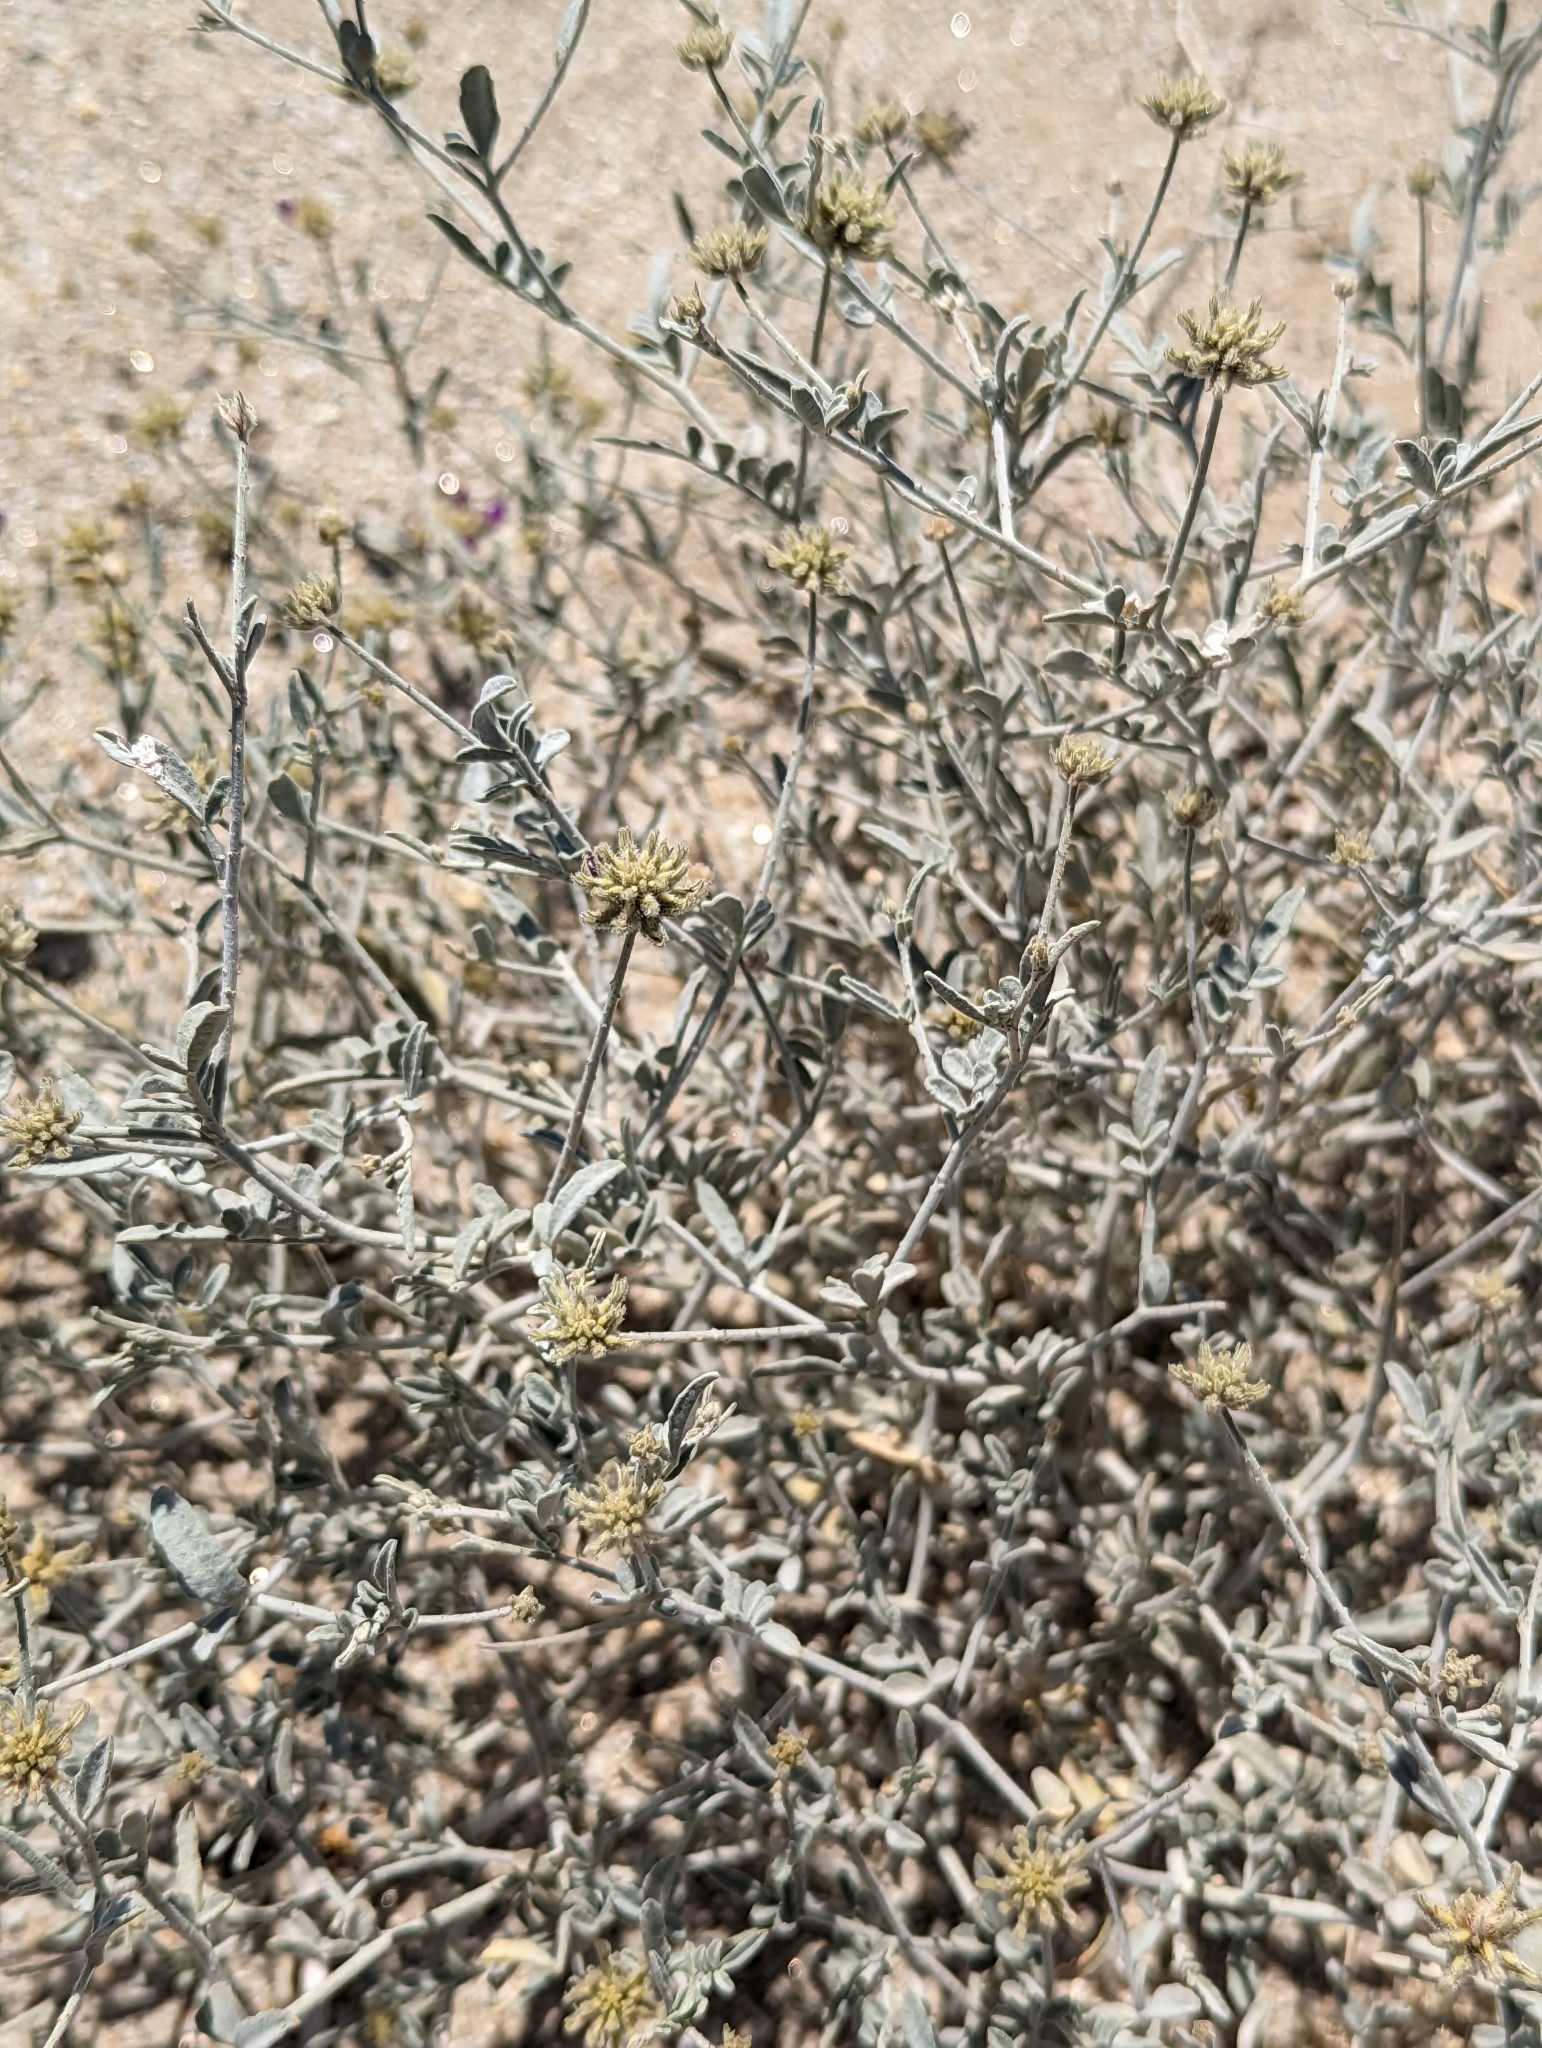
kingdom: Plantae
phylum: Tracheophyta
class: Magnoliopsida
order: Fabales
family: Fabaceae
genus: Psorothamnus
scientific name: Psorothamnus emoryi
